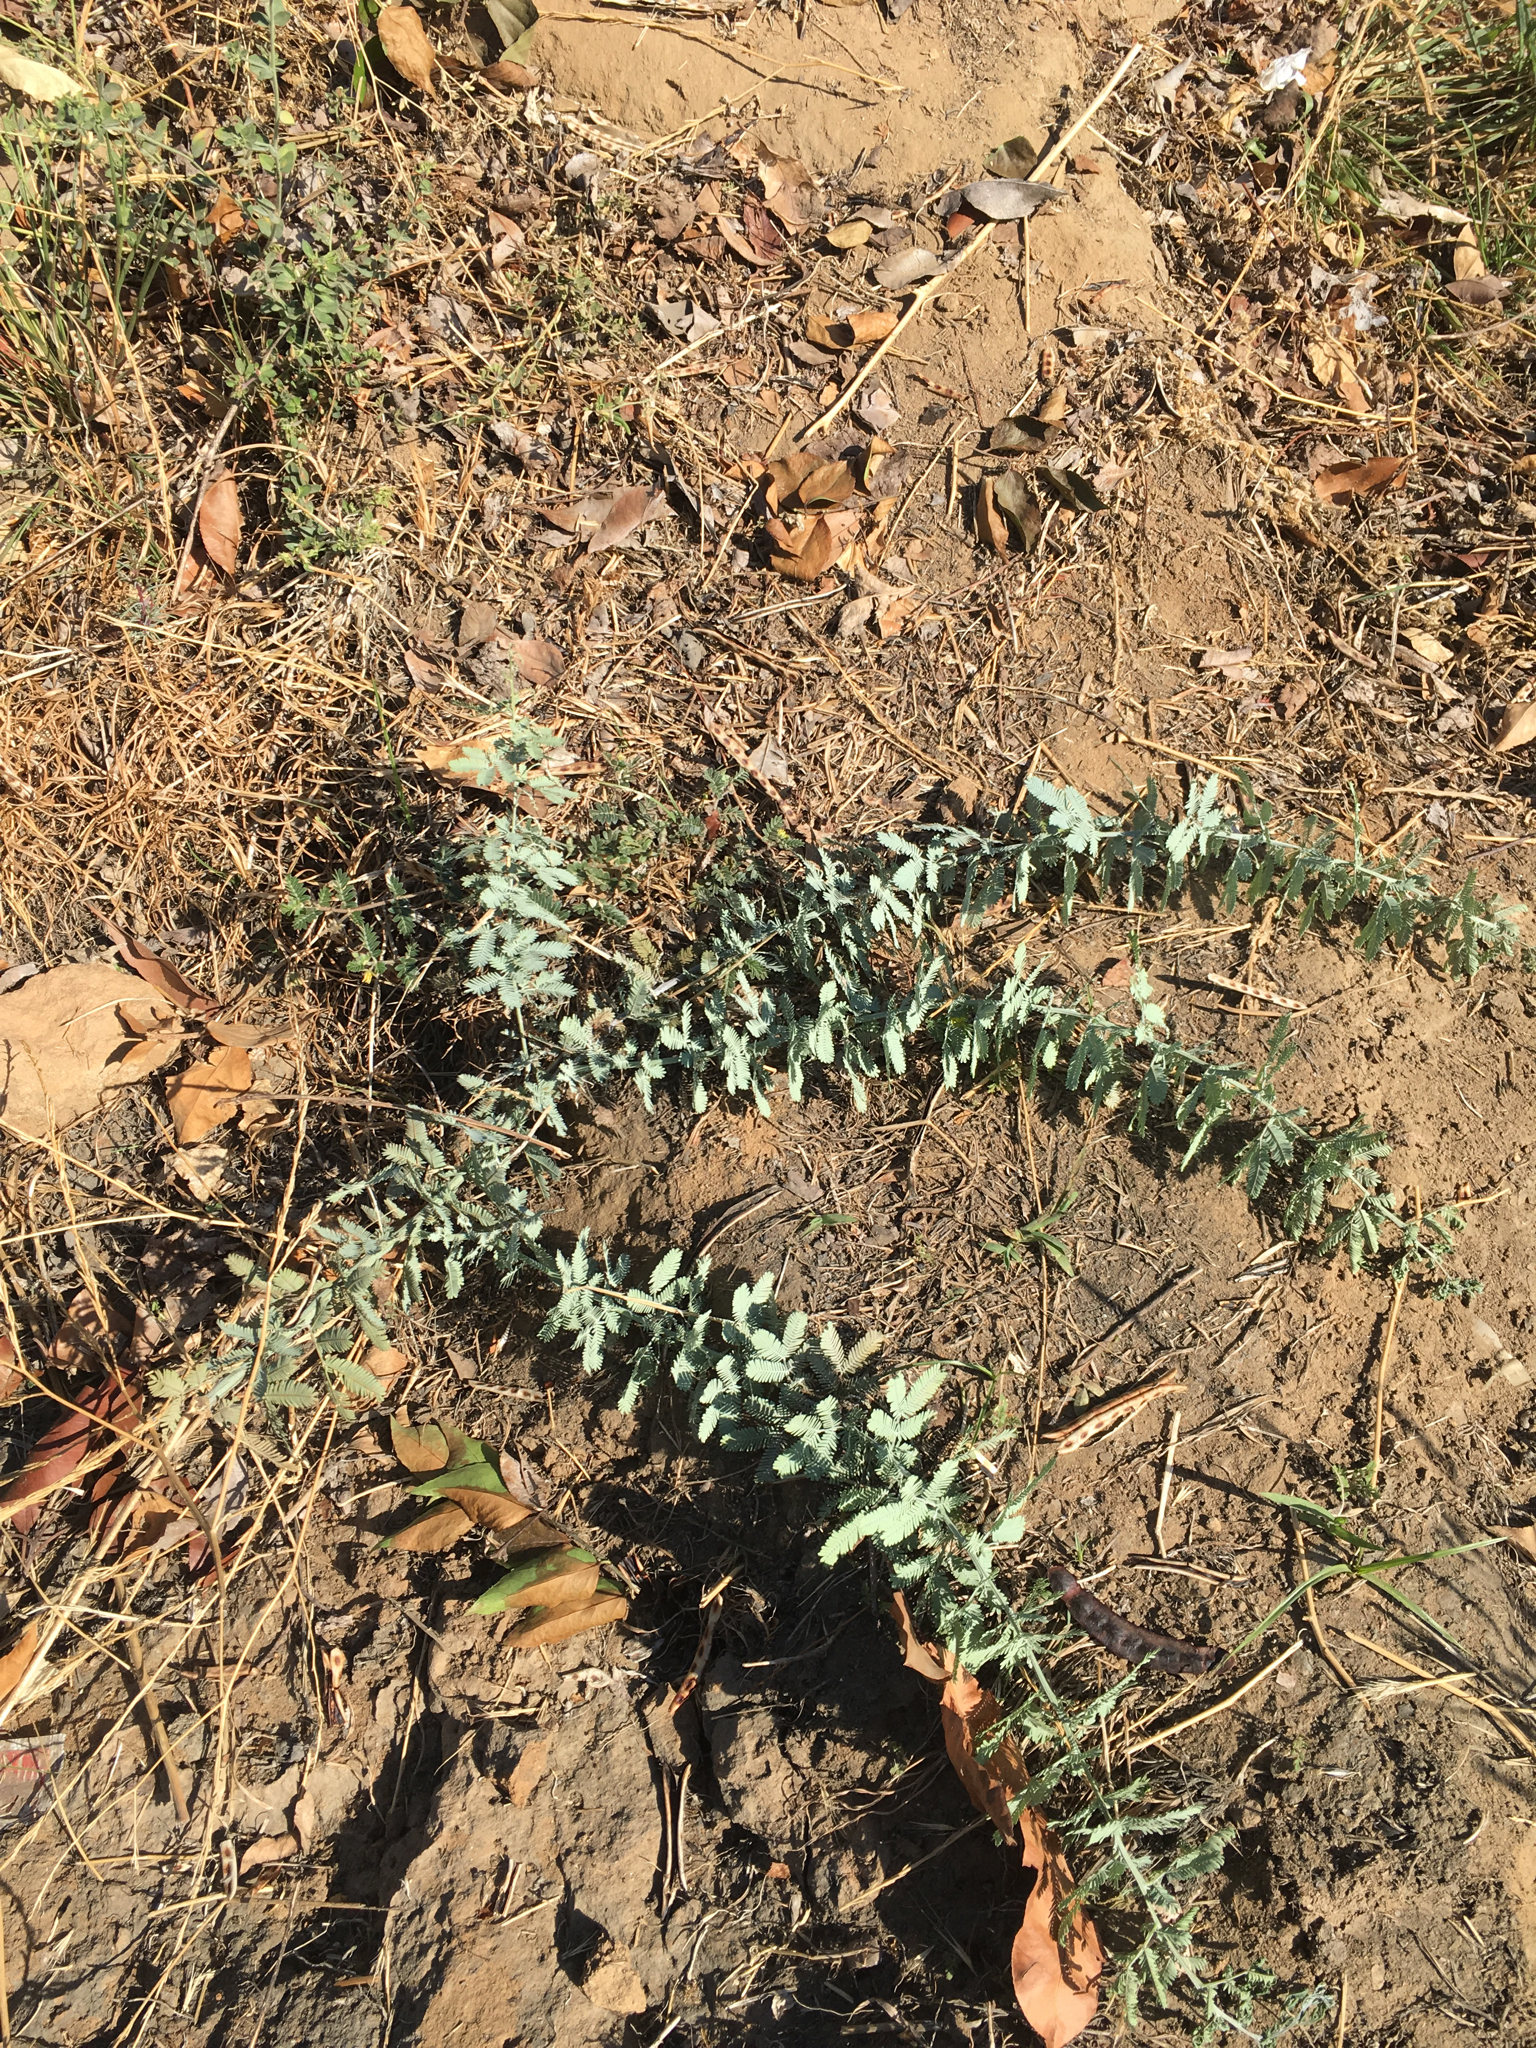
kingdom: Plantae
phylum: Tracheophyta
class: Magnoliopsida
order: Fabales
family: Fabaceae
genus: Acacia
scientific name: Acacia baileyana
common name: Cootamundra wattle
